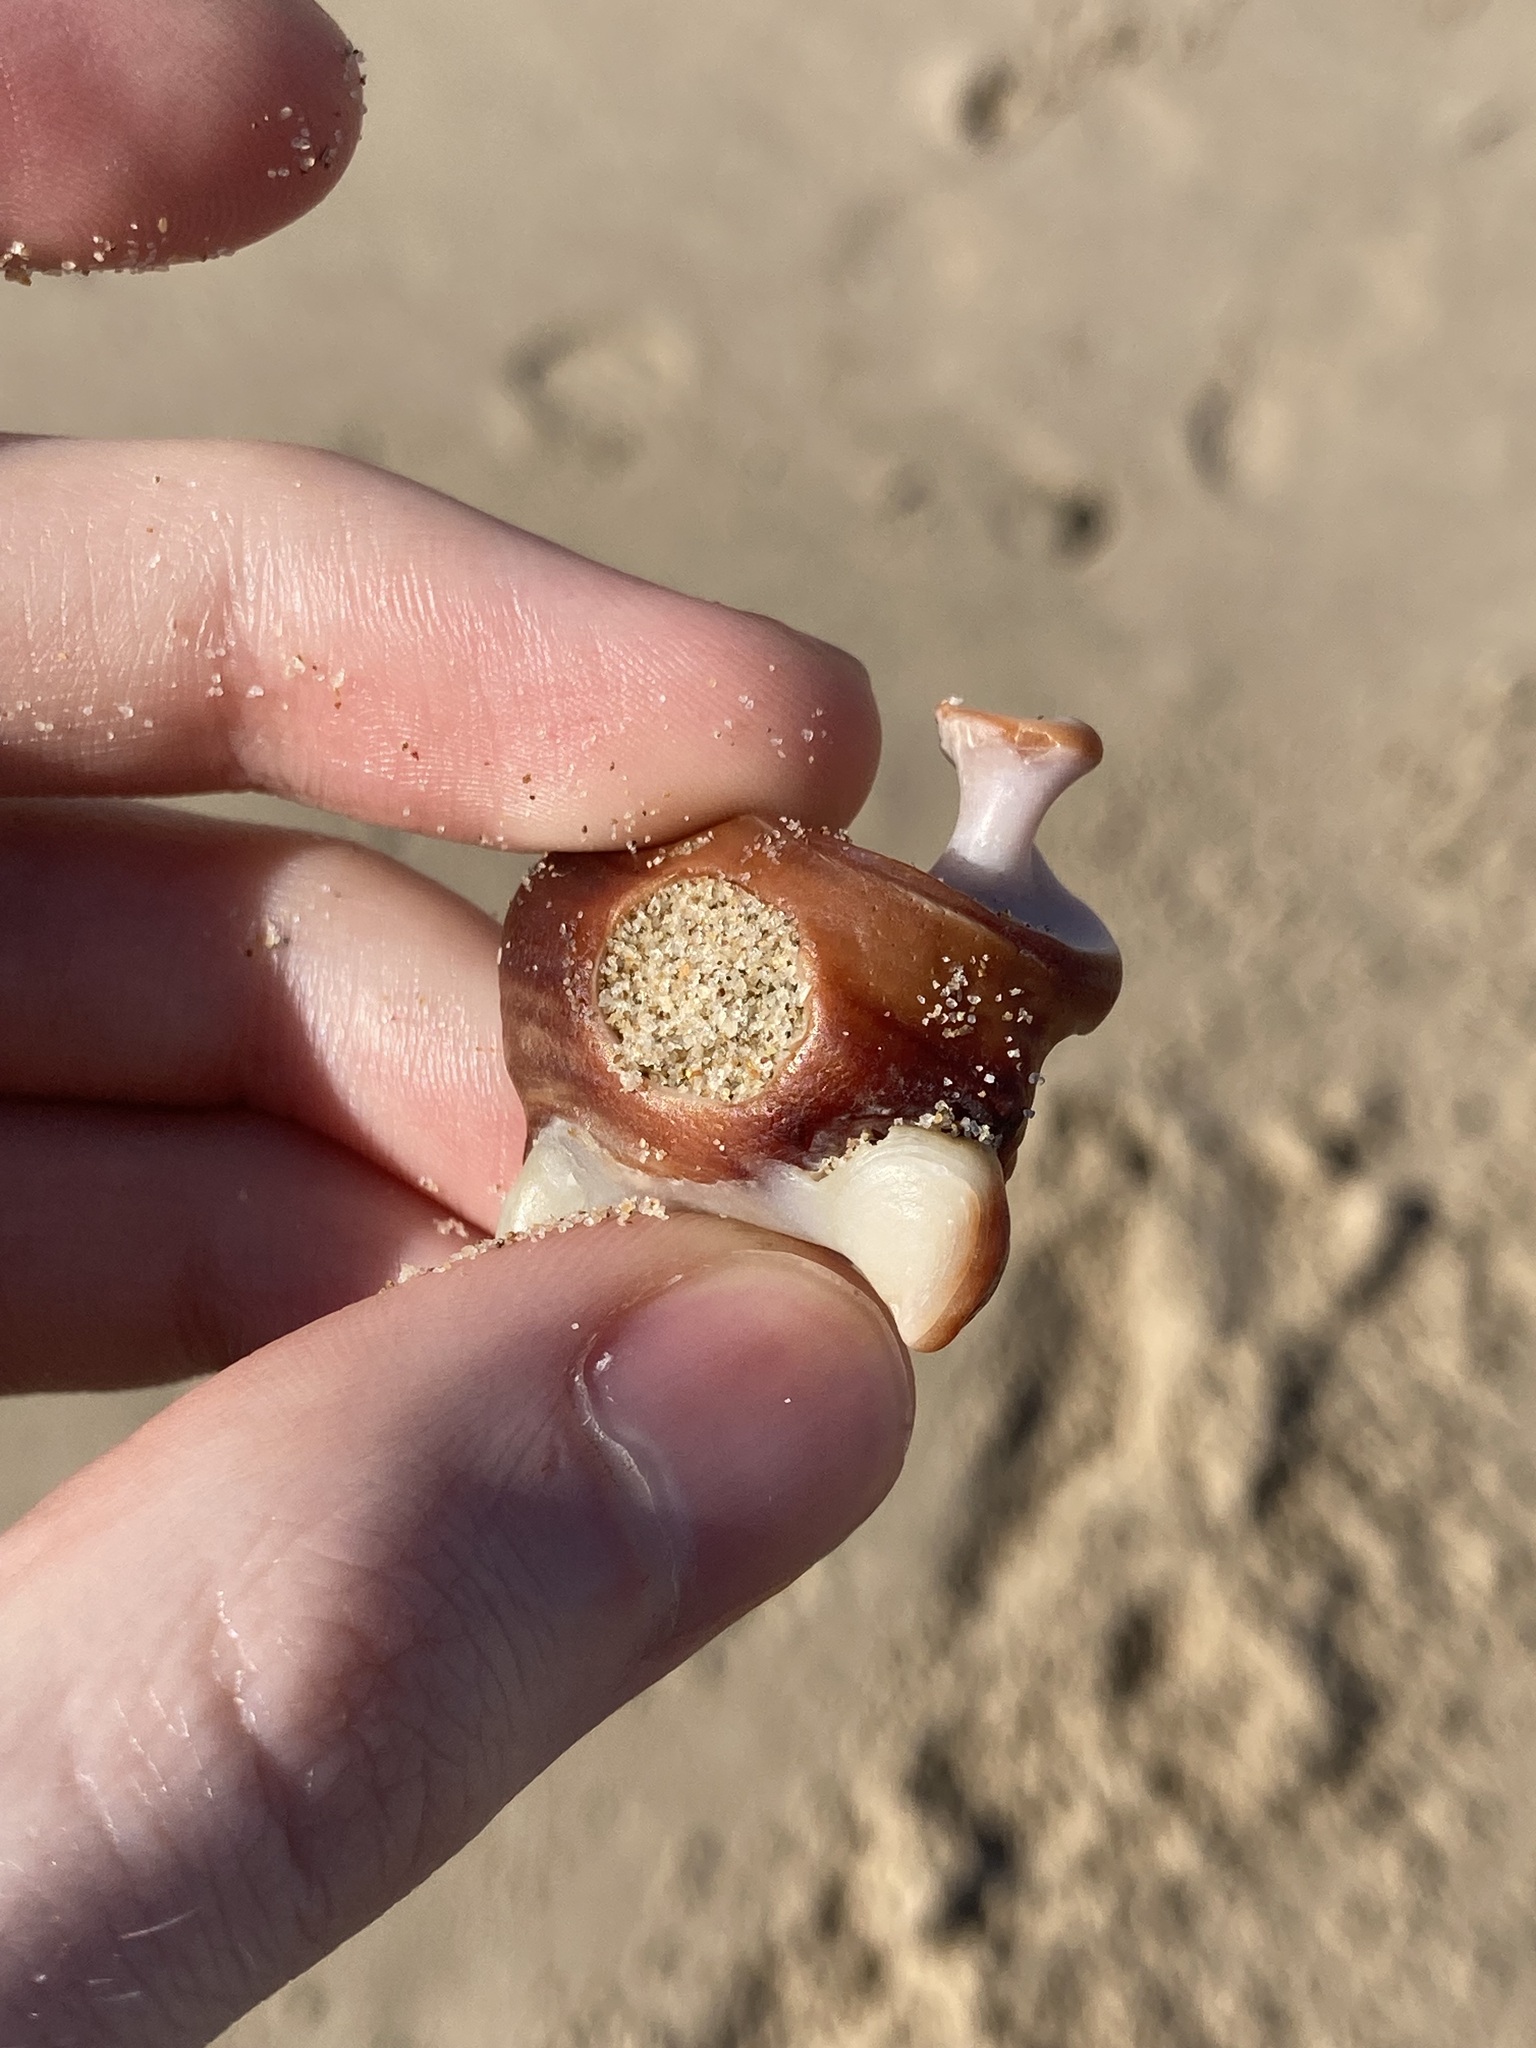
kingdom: Animalia
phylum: Mollusca
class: Gastropoda
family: Batillariidae
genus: Pyrazus
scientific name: Pyrazus ebeninus
